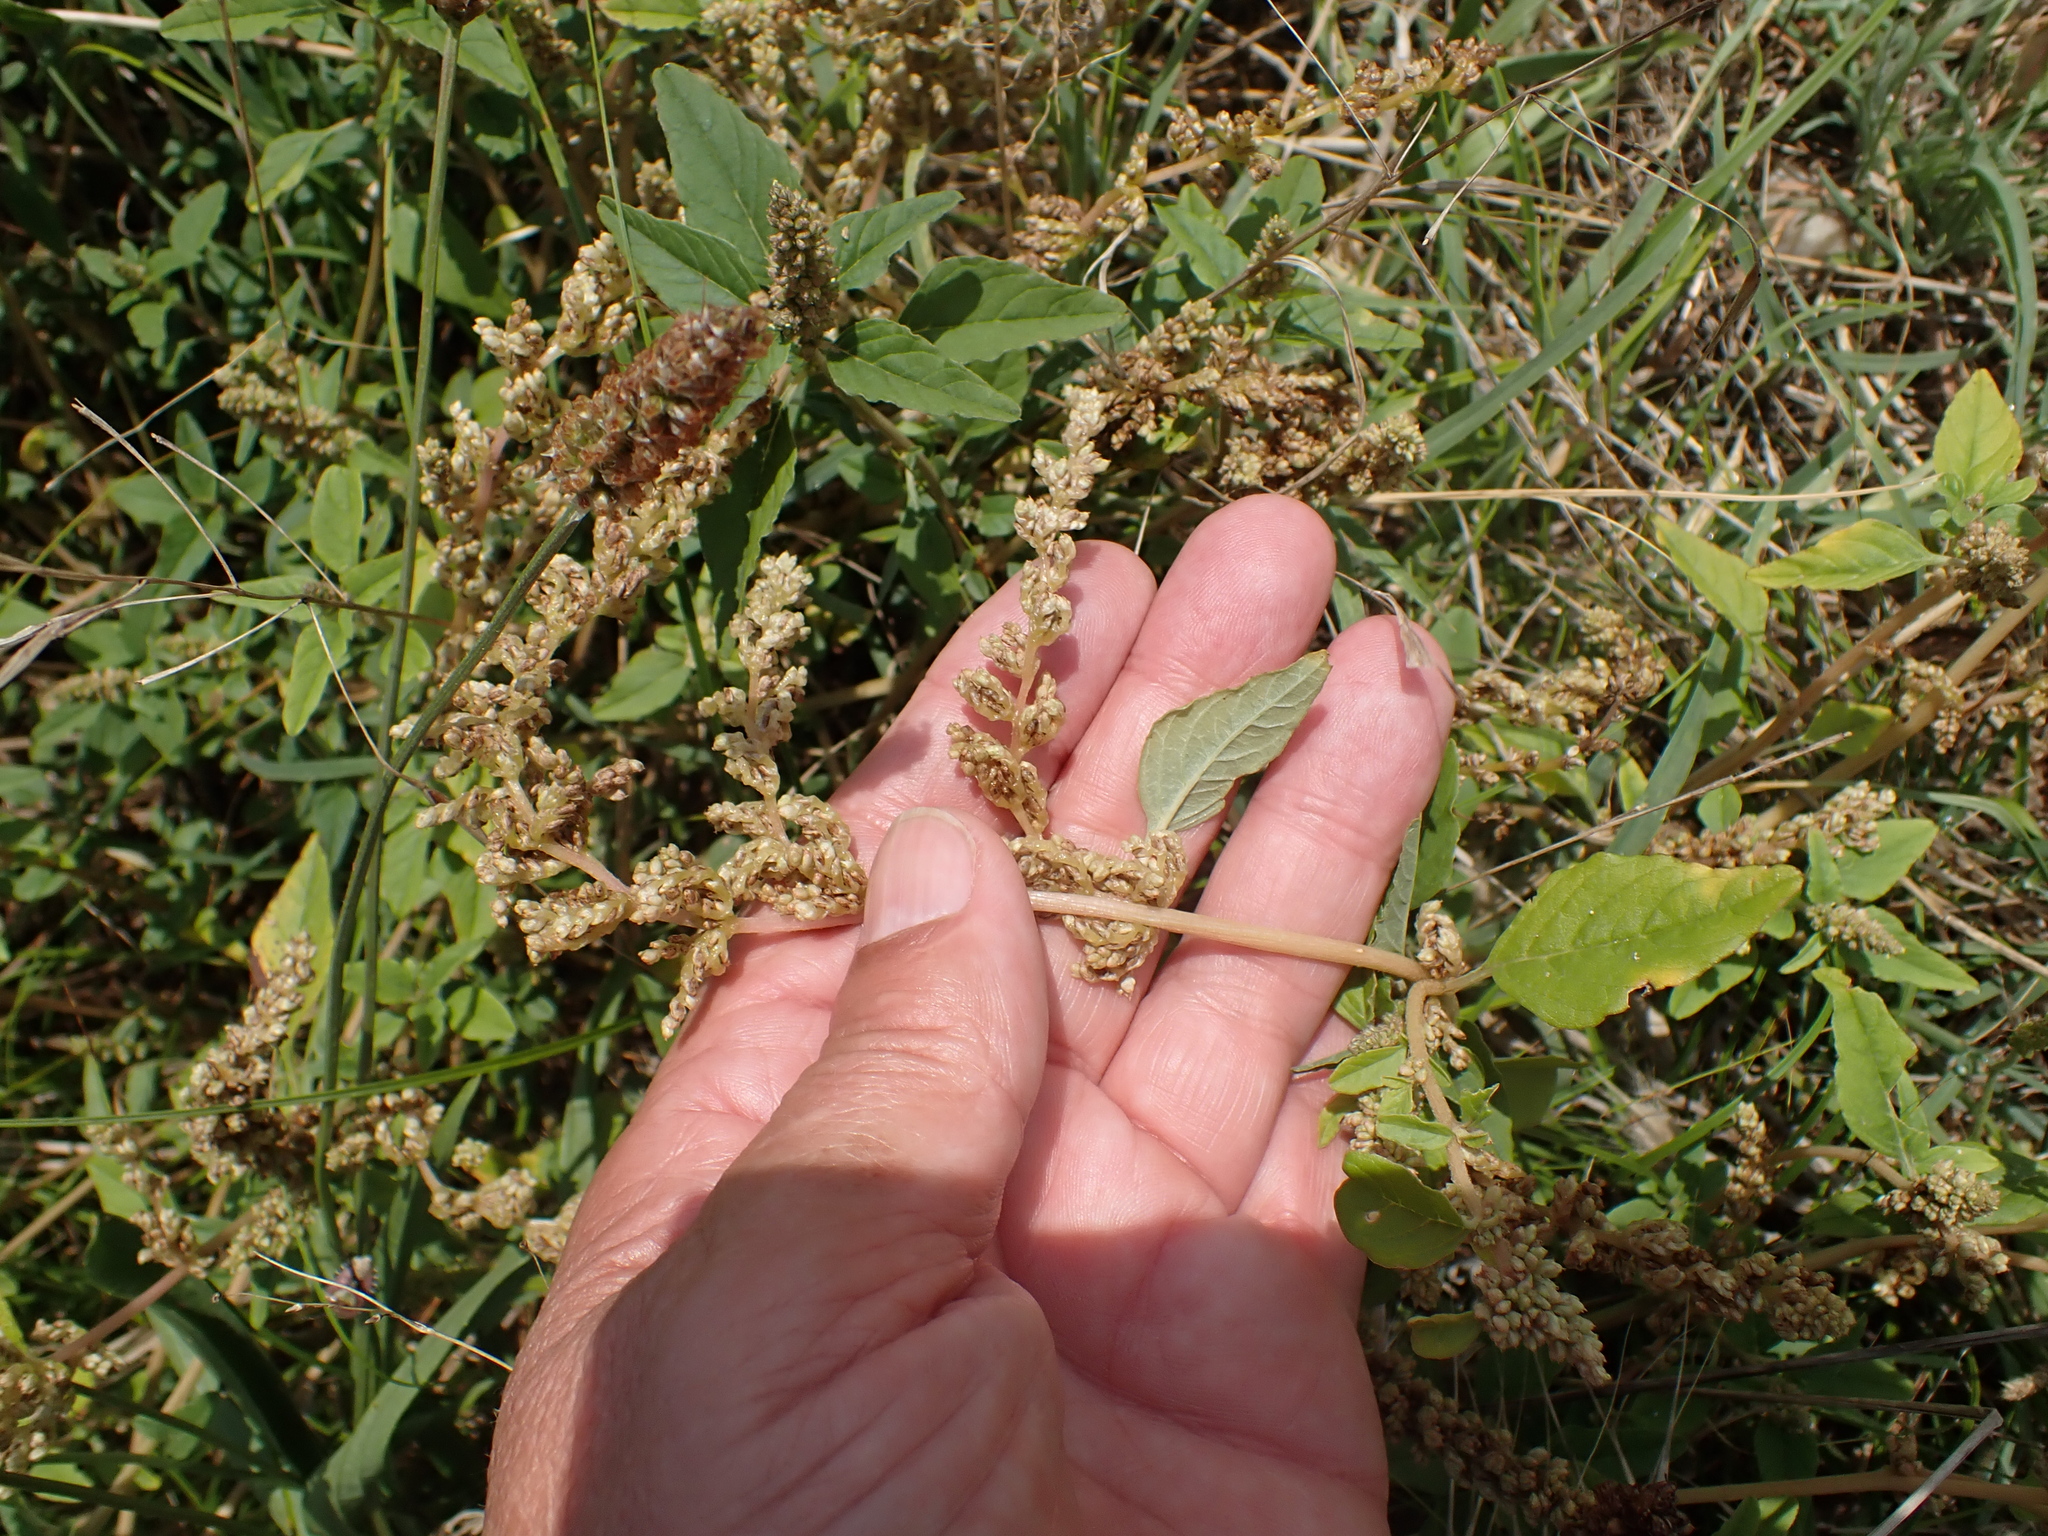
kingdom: Plantae
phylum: Tracheophyta
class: Magnoliopsida
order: Caryophyllales
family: Amaranthaceae
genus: Amaranthus
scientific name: Amaranthus deflexus
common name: Perennial pigweed
